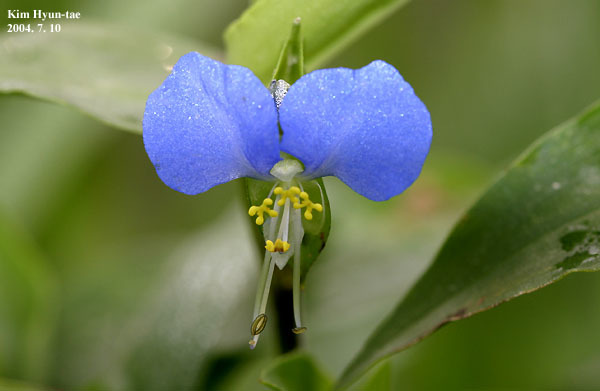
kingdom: Plantae
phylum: Tracheophyta
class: Liliopsida
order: Commelinales
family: Commelinaceae
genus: Commelina
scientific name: Commelina communis
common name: Asiatic dayflower
